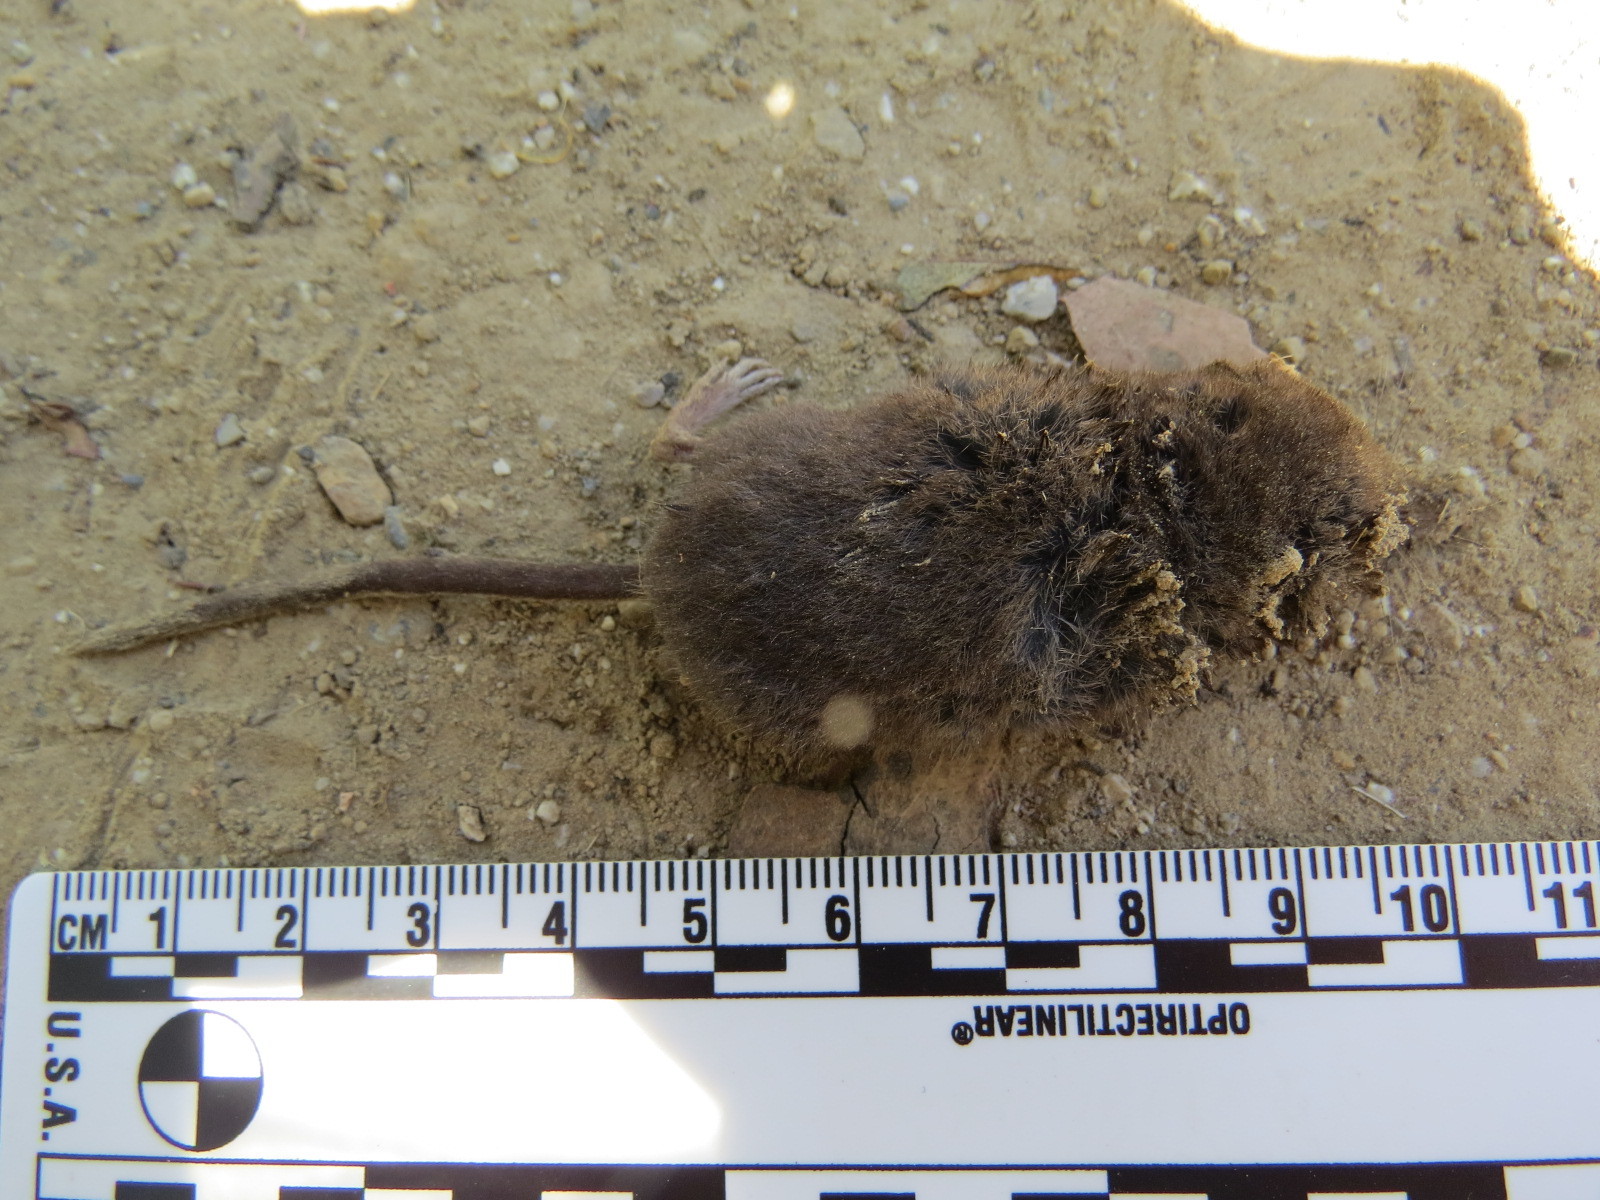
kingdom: Animalia
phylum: Chordata
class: Mammalia
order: Soricomorpha
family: Soricidae
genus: Sorex
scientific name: Sorex vagrans
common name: Vagrant shrew
